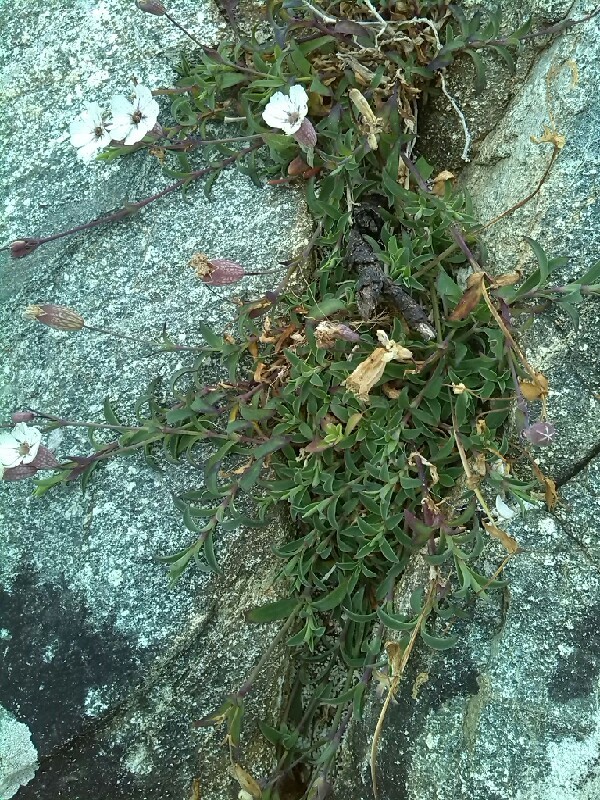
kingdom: Plantae
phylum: Tracheophyta
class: Magnoliopsida
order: Caryophyllales
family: Caryophyllaceae
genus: Silene
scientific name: Silene uniflora
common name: Sea campion
